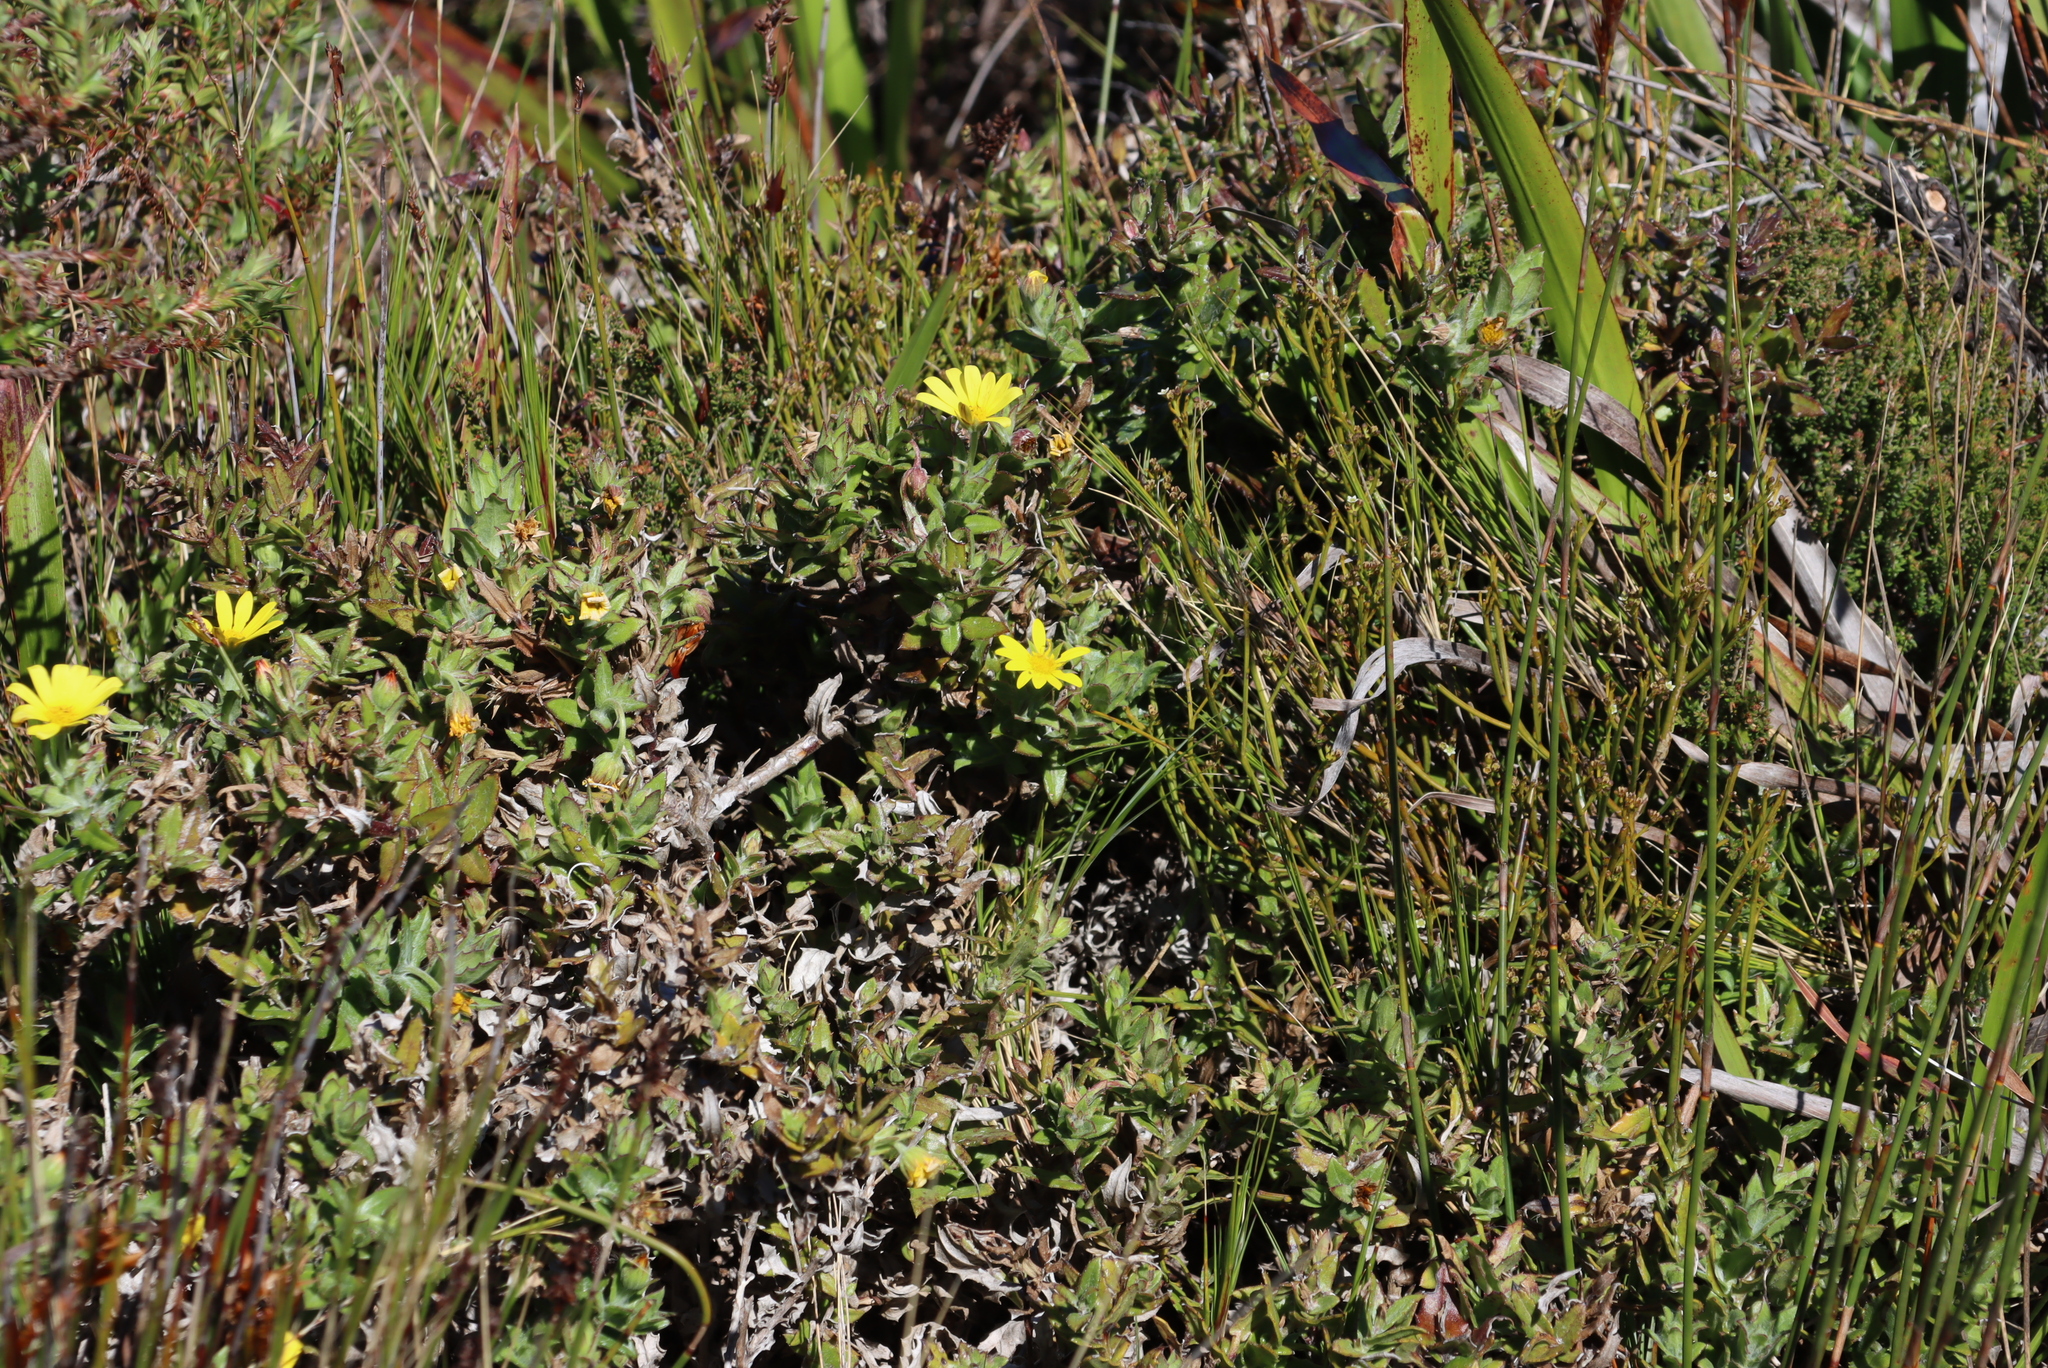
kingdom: Plantae
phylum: Tracheophyta
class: Magnoliopsida
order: Asterales
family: Asteraceae
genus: Osteospermum
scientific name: Osteospermum ilicifolium
